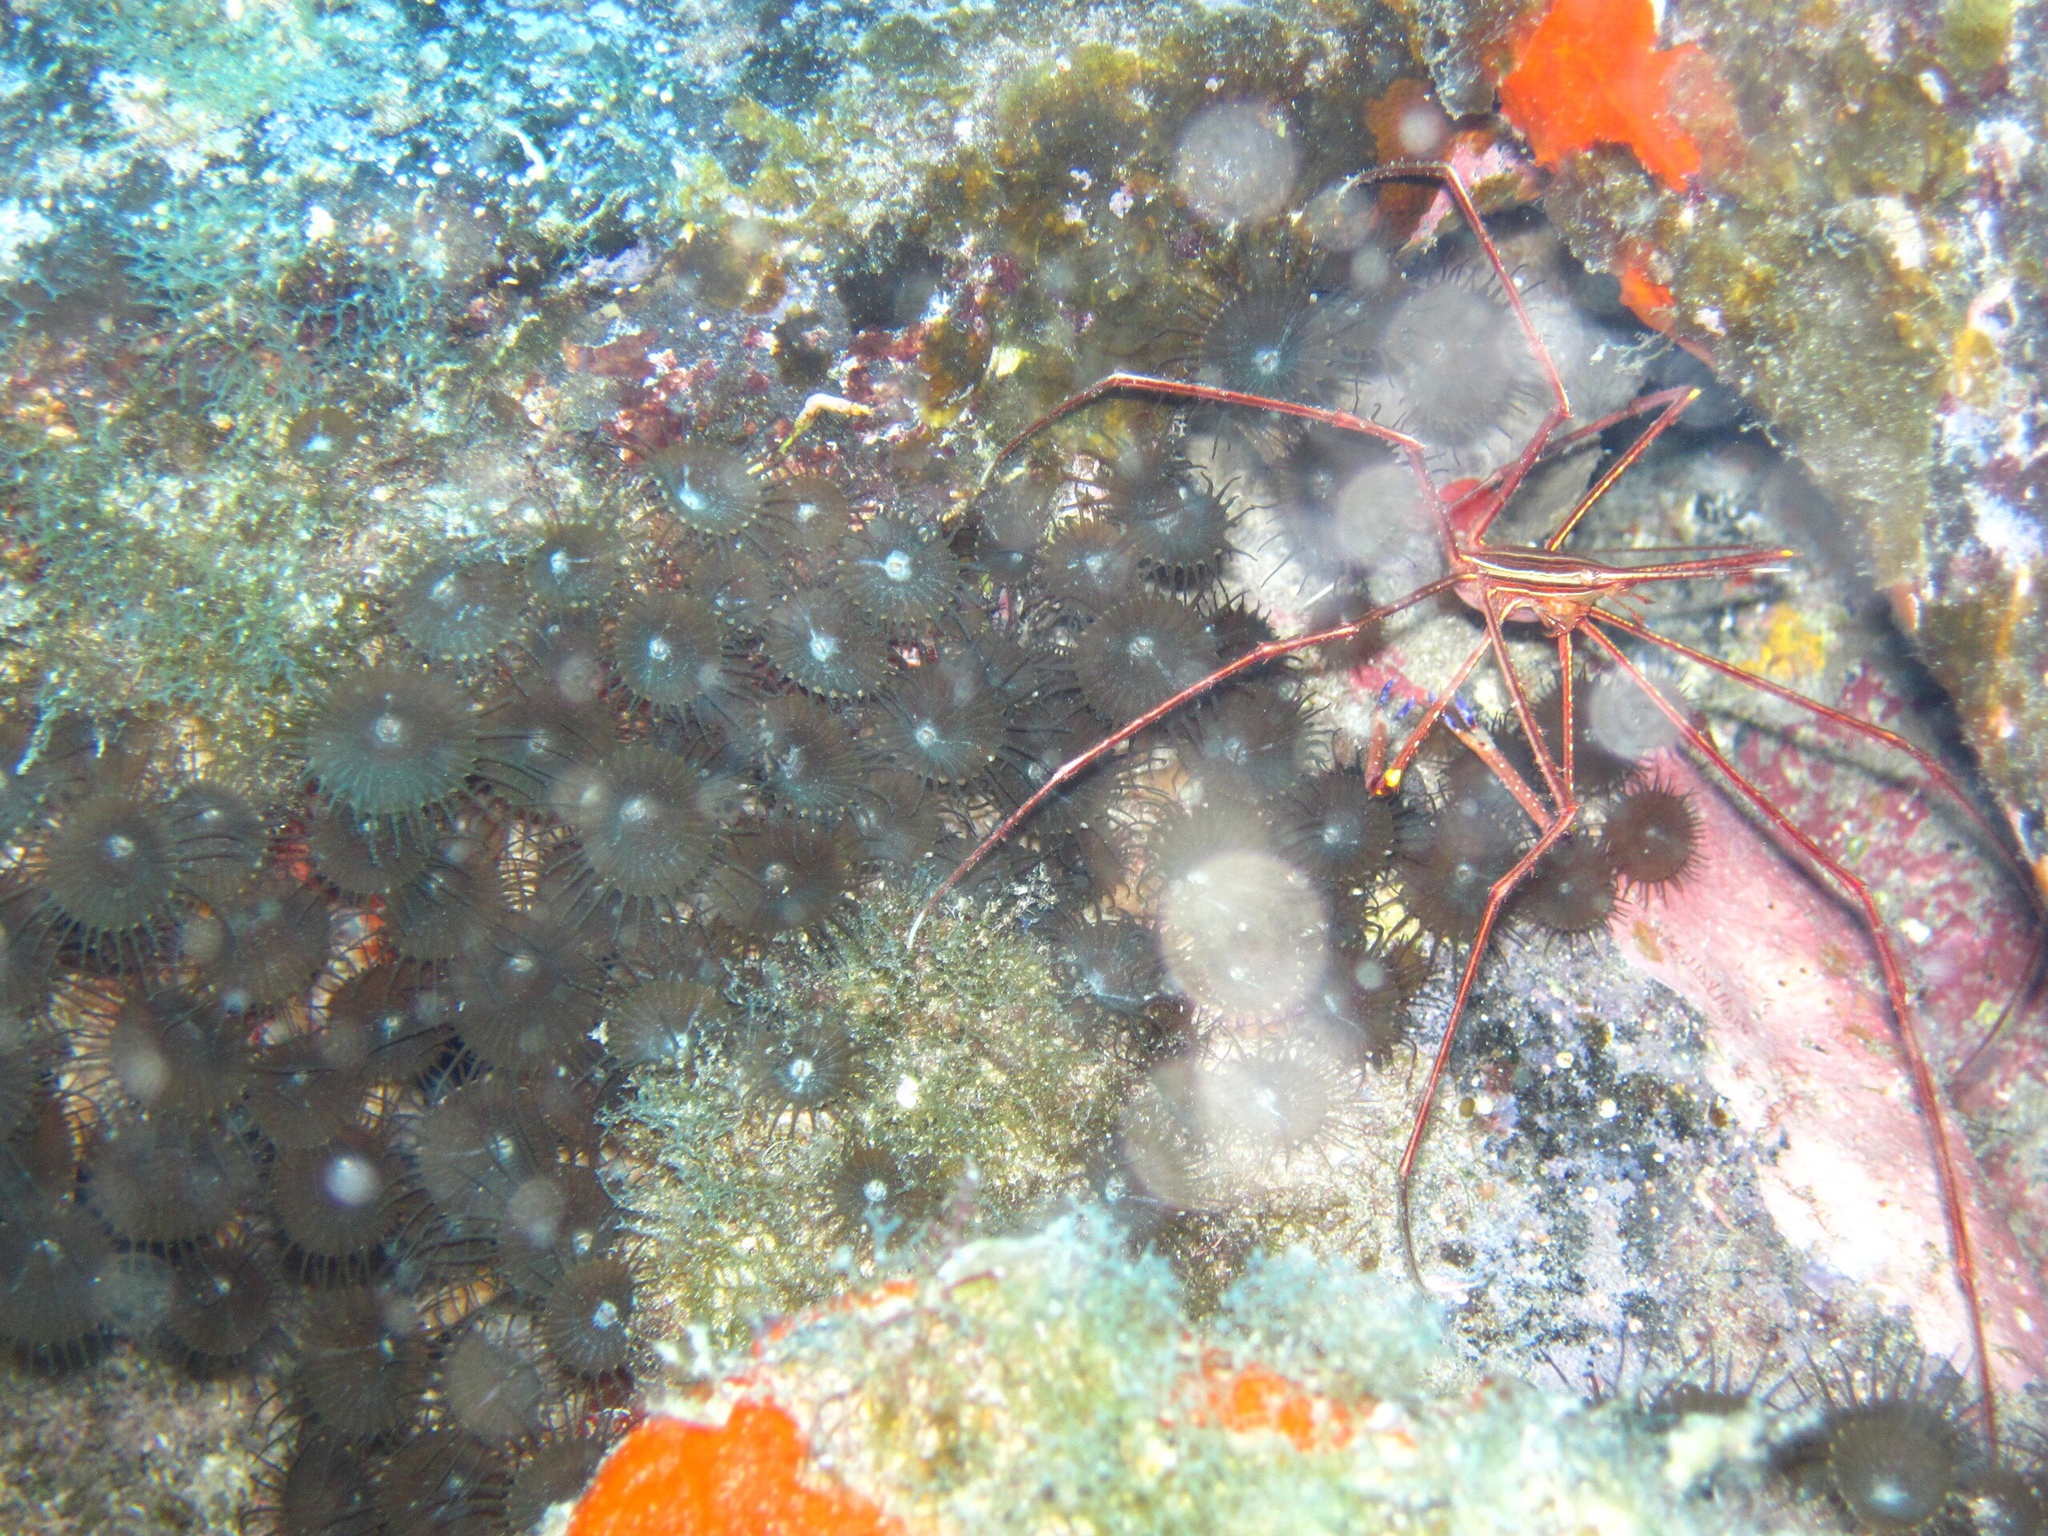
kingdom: Animalia
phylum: Arthropoda
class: Malacostraca
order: Decapoda
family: Inachoididae
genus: Stenorhynchus
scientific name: Stenorhynchus lanceolatus
